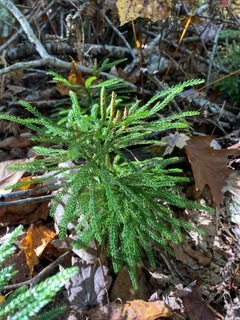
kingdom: Plantae
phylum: Tracheophyta
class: Lycopodiopsida
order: Lycopodiales
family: Lycopodiaceae
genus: Dendrolycopodium
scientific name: Dendrolycopodium obscurum
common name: Common ground-pine
